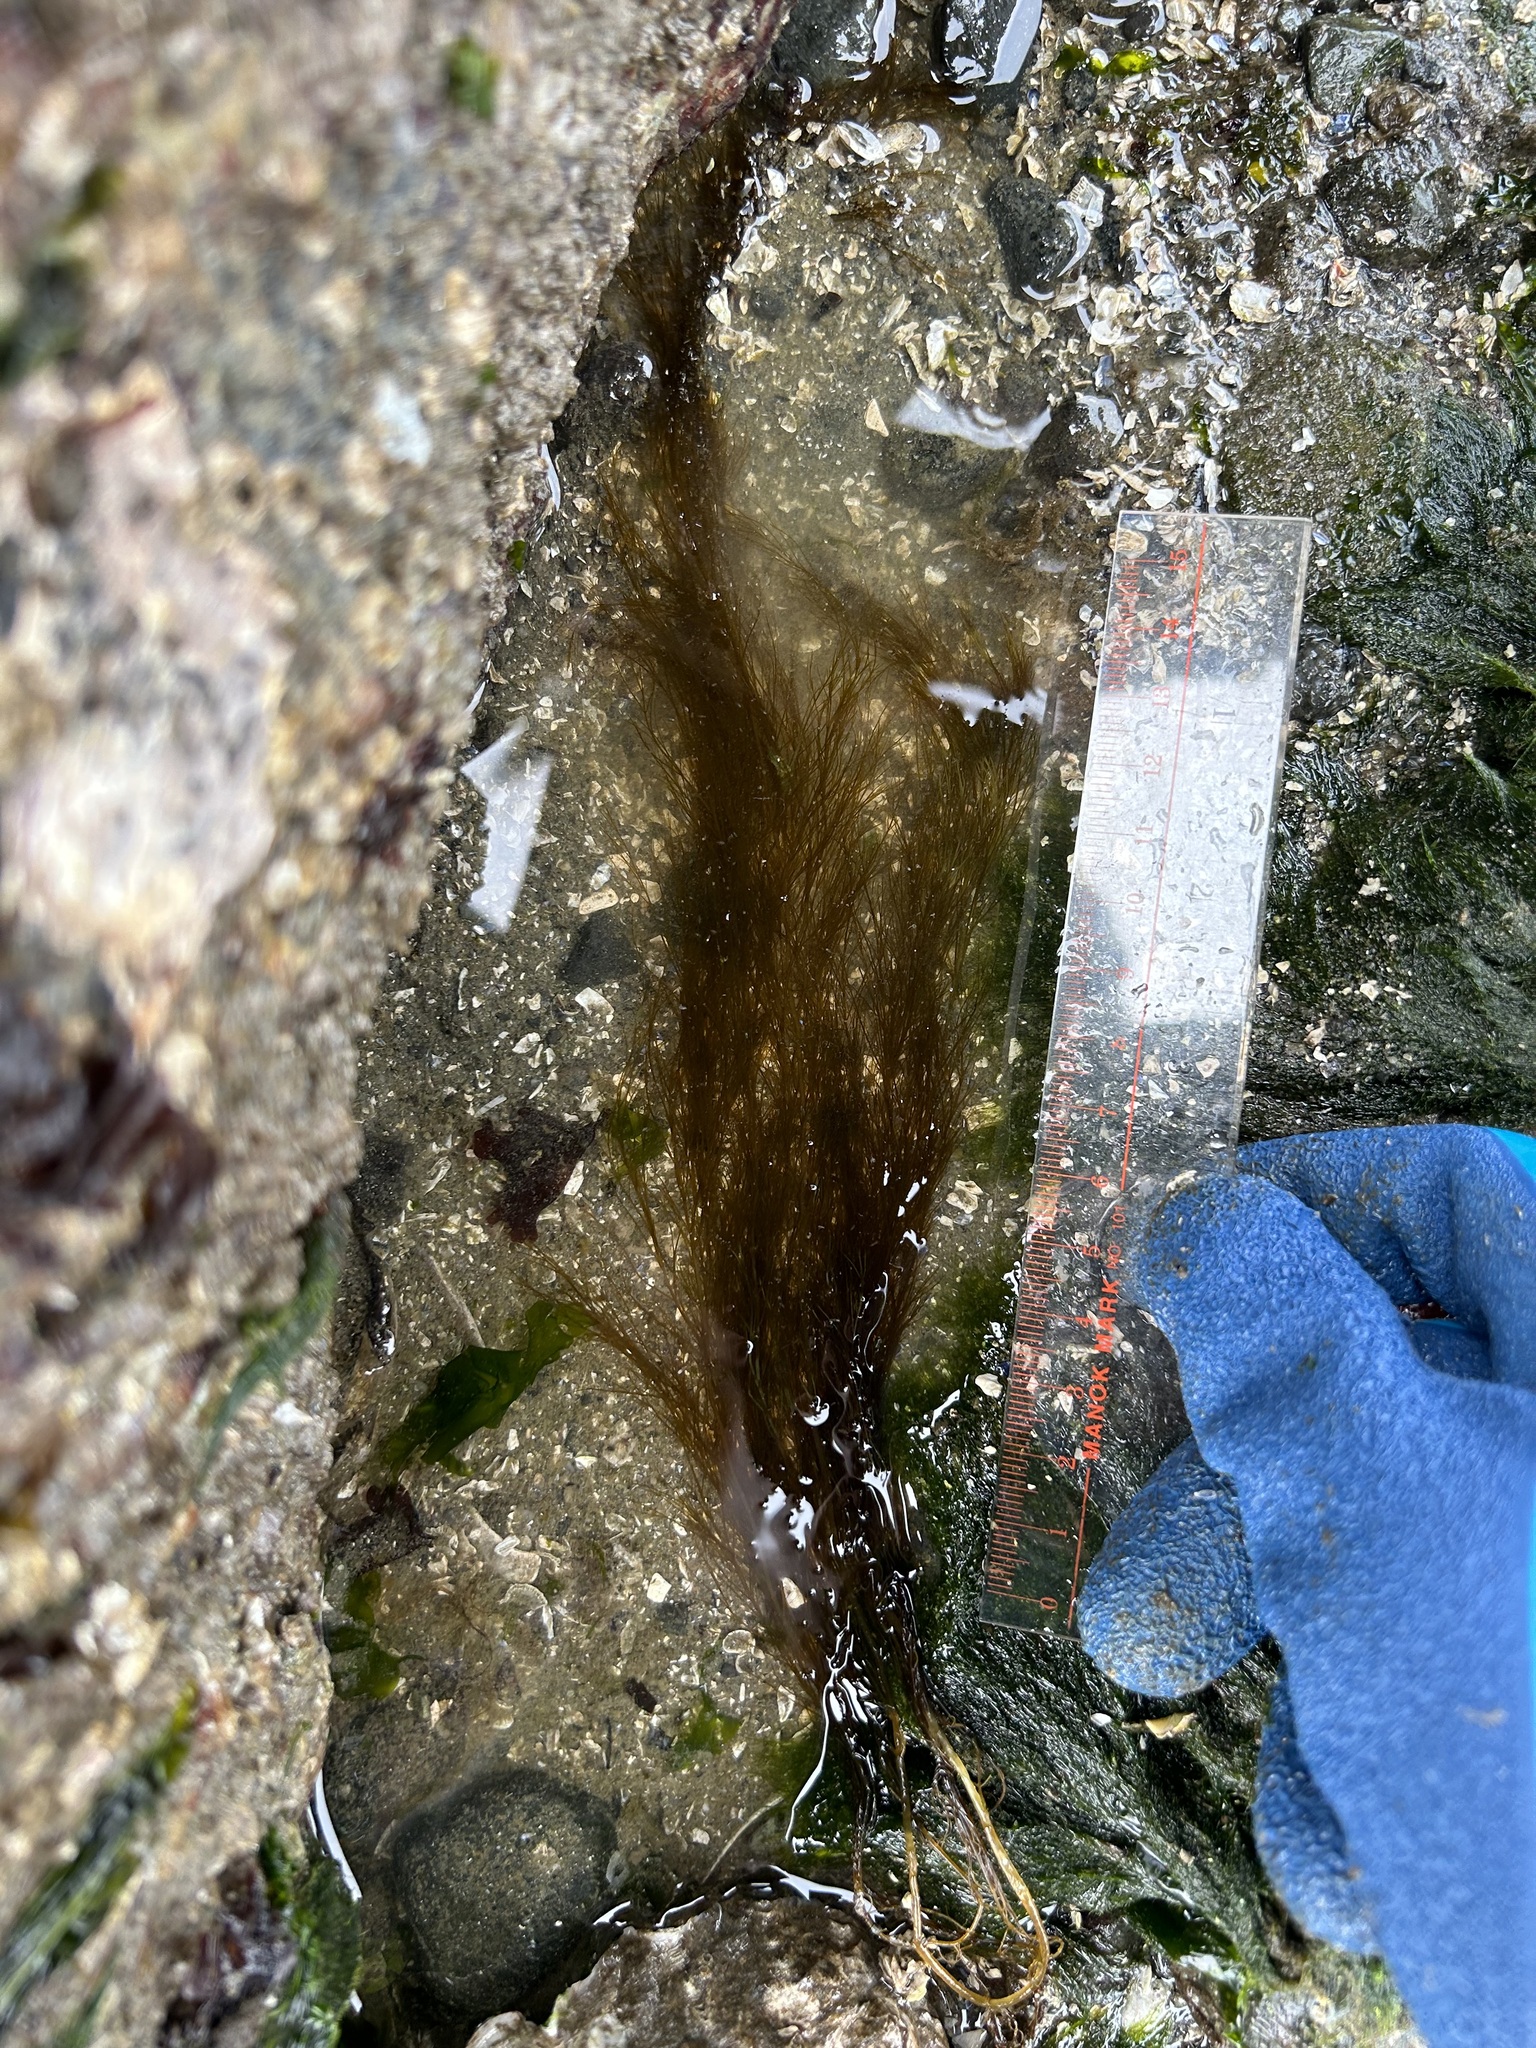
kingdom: Chromista
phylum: Ochrophyta
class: Phaeophyceae
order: Desmarestiales
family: Desmarestiaceae
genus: Desmarestia
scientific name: Desmarestia viridis
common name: Stringy acid kelp
